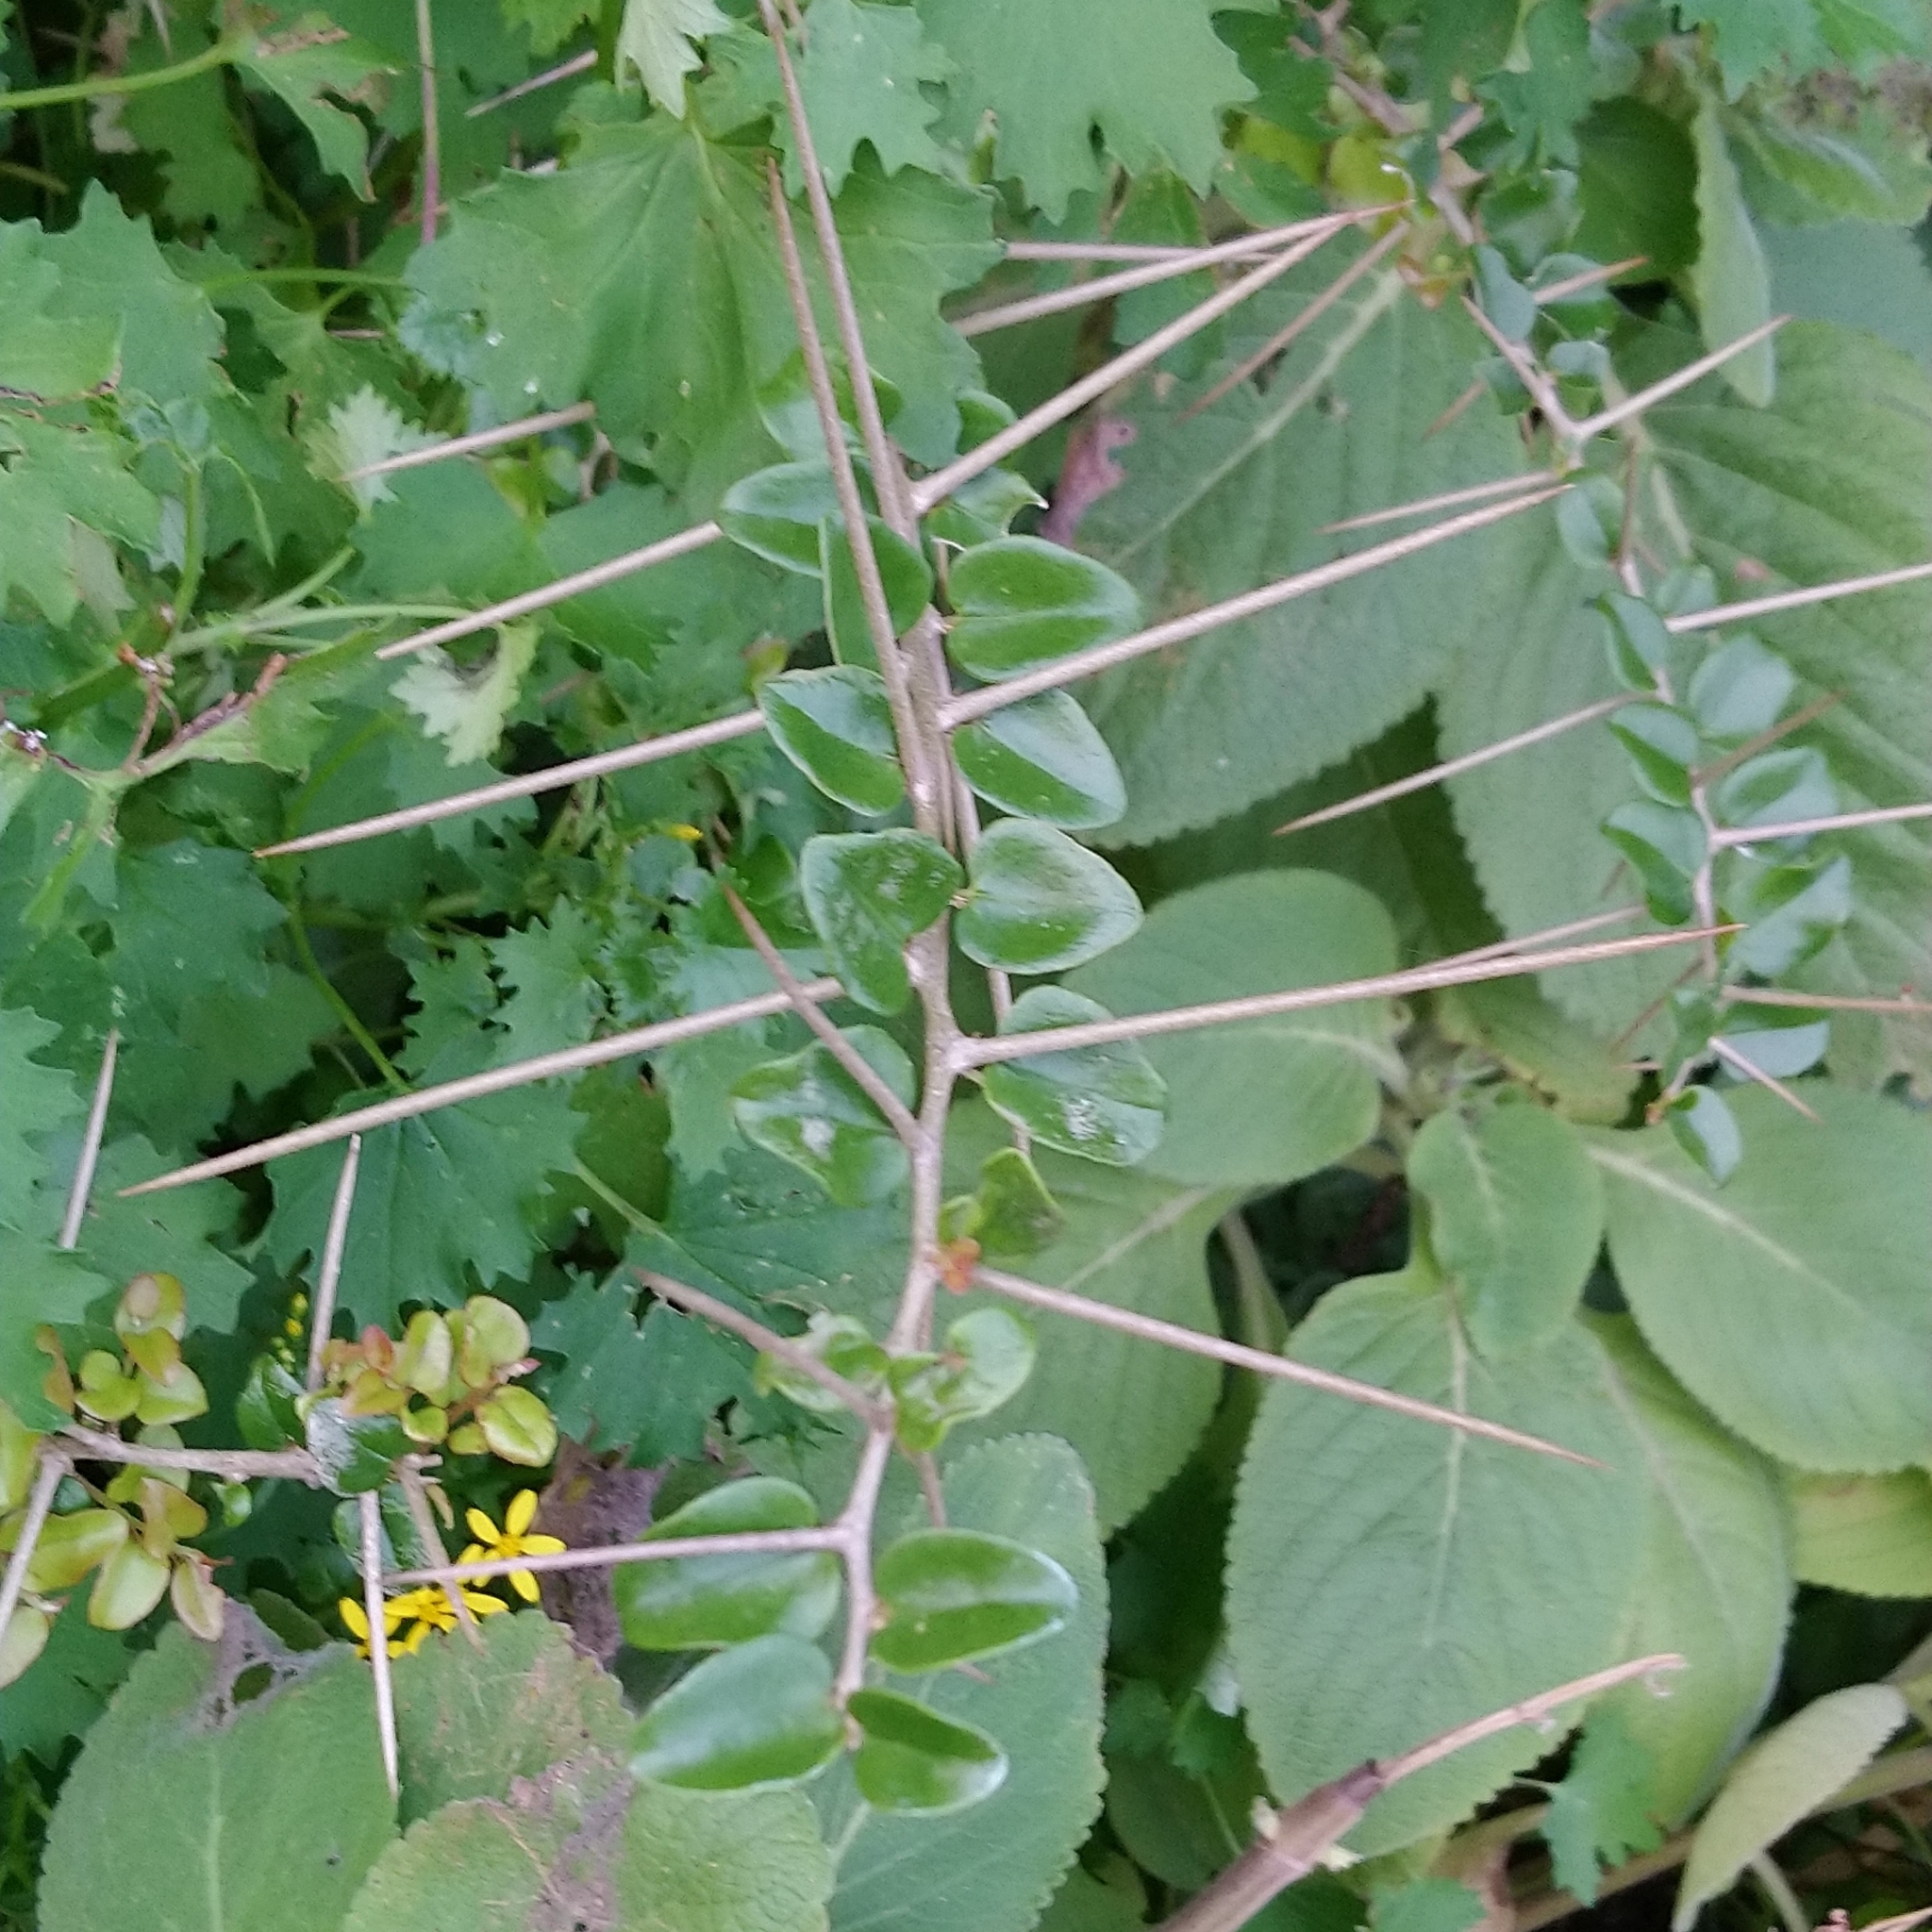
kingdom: Plantae
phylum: Tracheophyta
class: Magnoliopsida
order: Malpighiales
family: Salicaceae
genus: Dovyalis
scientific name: Dovyalis rhamnoides
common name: Sourberry
